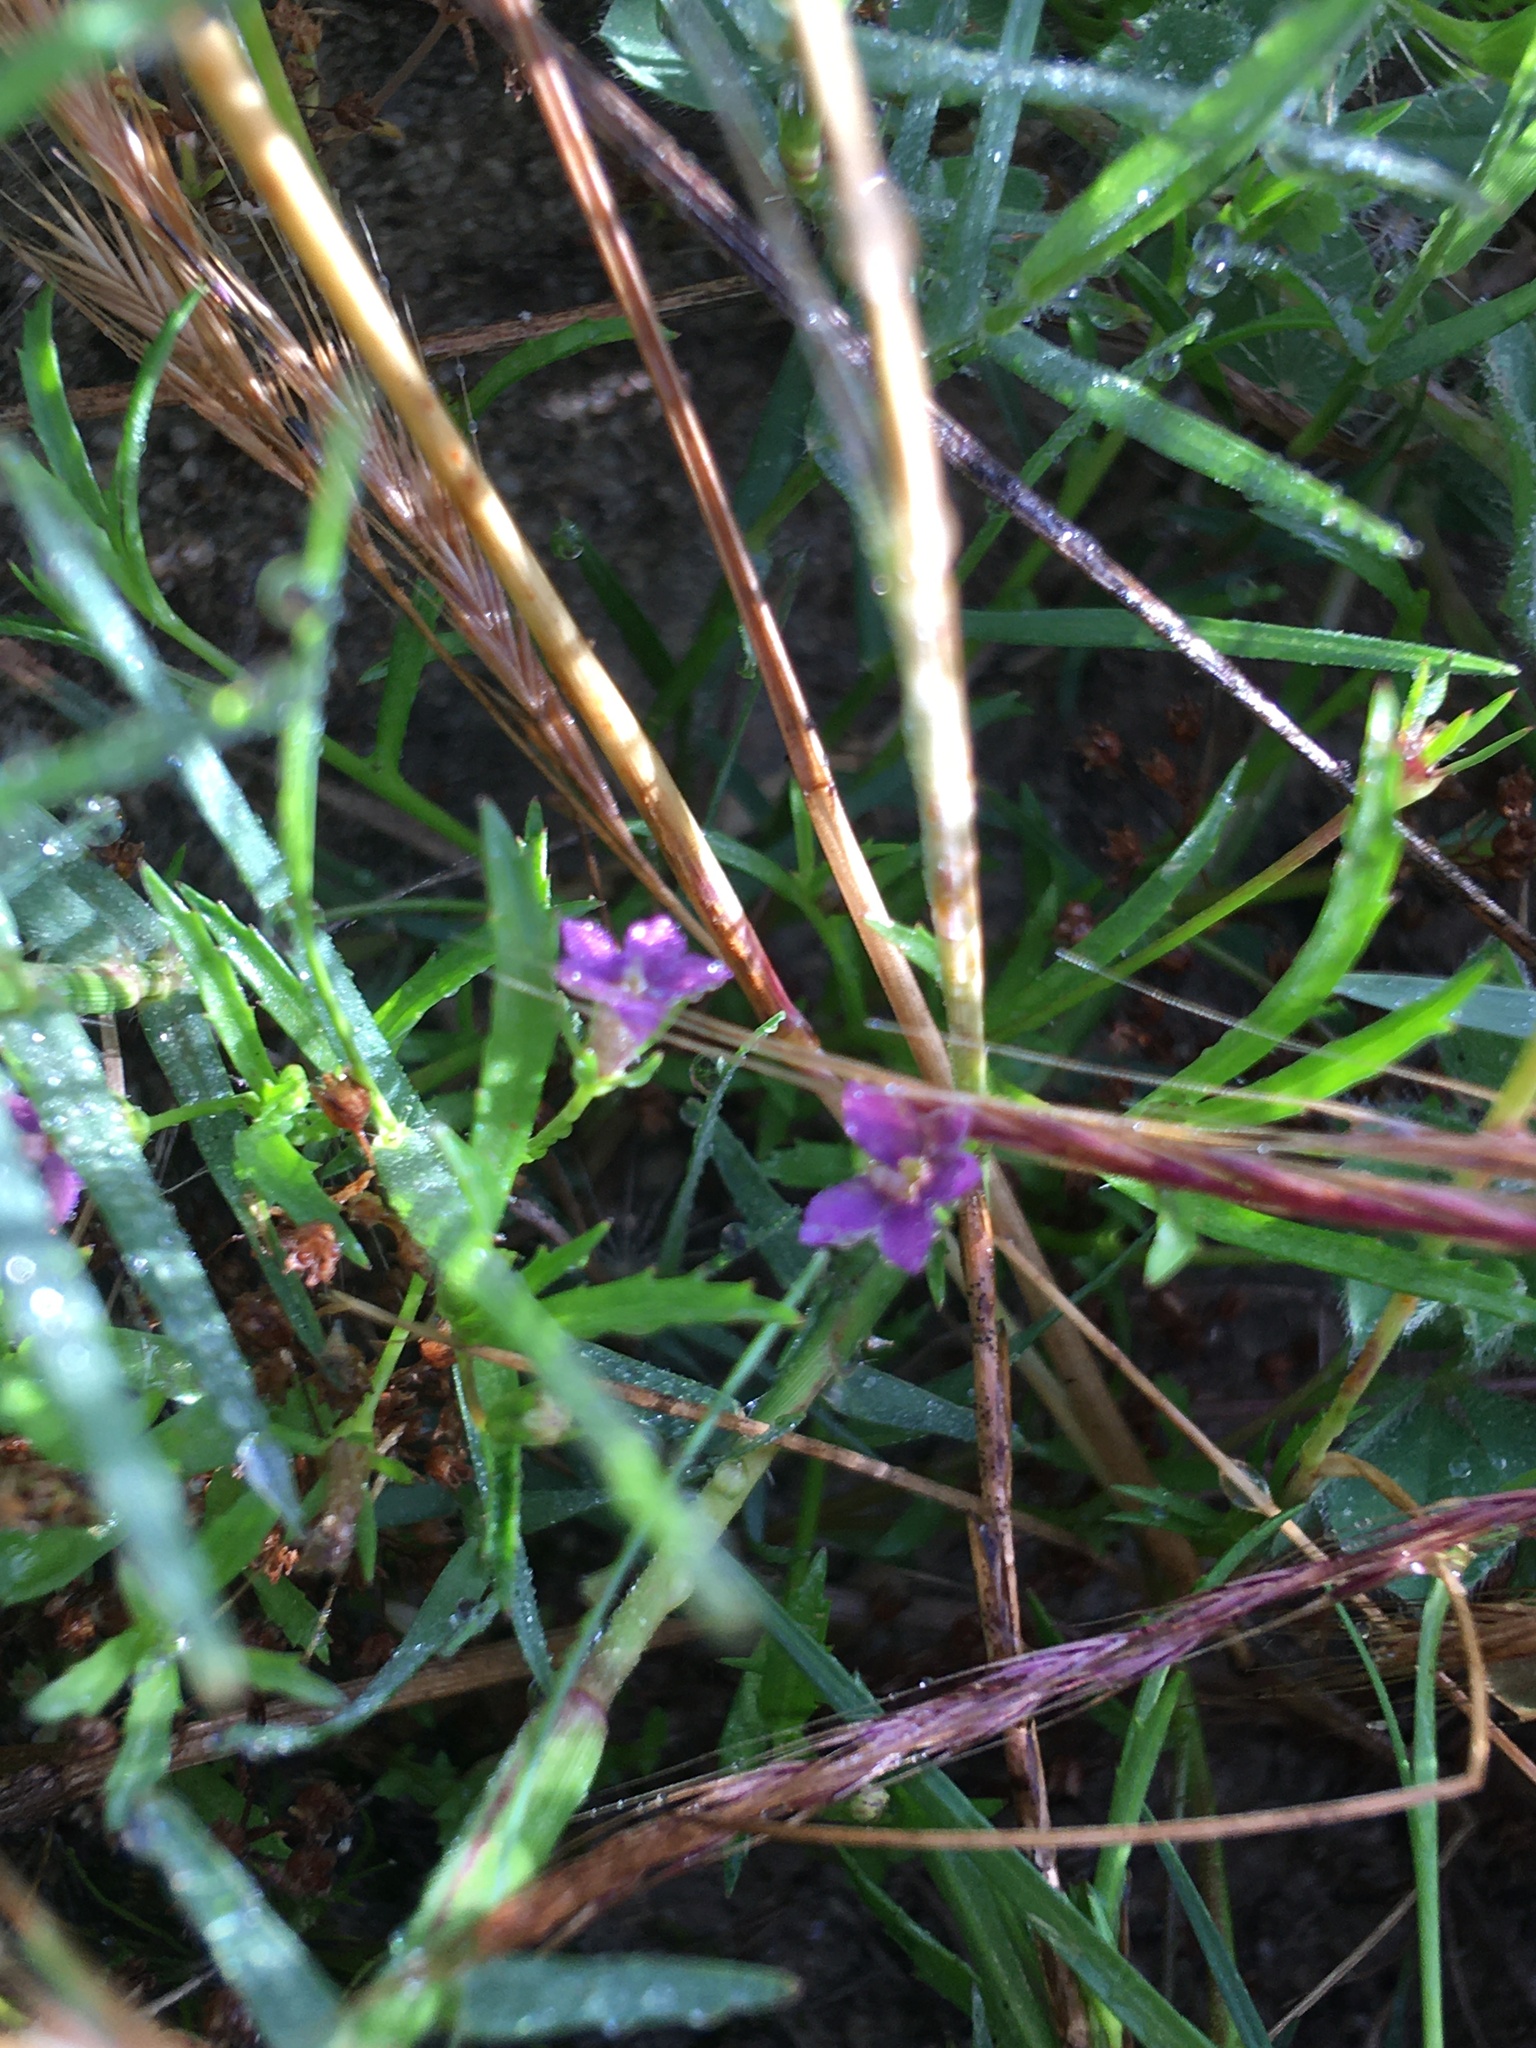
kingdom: Plantae
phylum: Tracheophyta
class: Magnoliopsida
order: Asterales
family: Campanulaceae
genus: Monopsis
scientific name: Monopsis debilis
